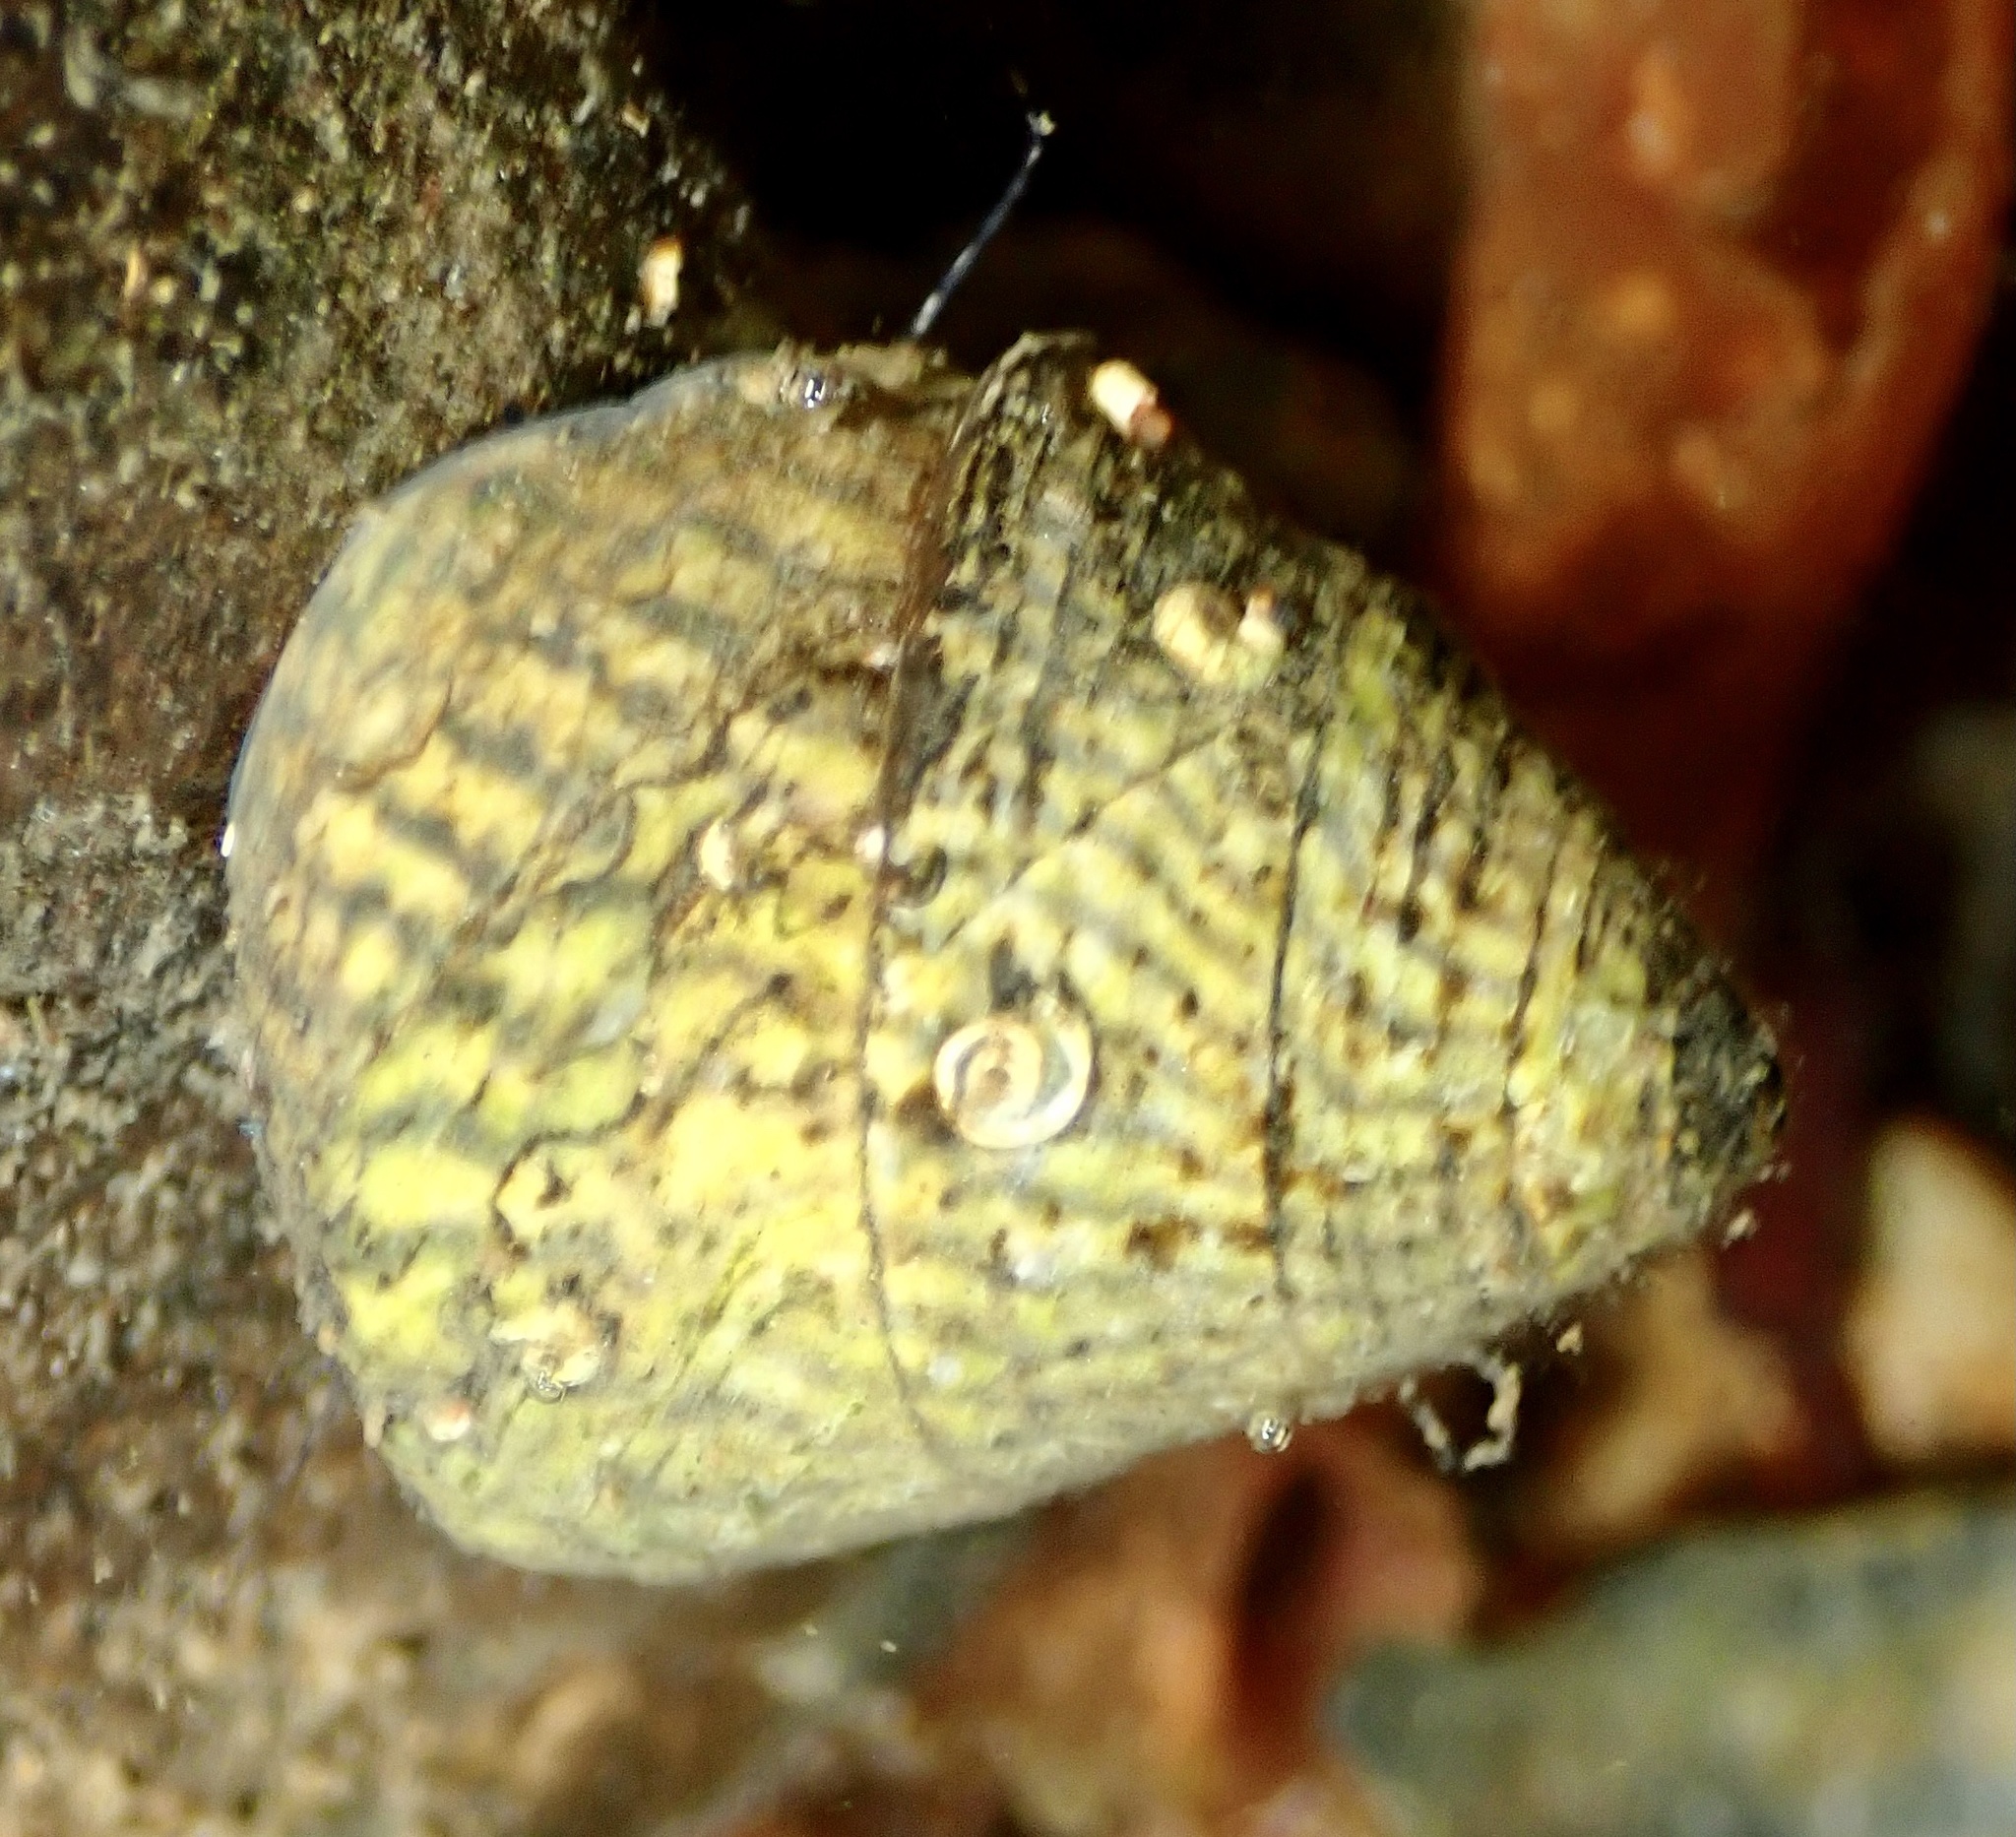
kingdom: Animalia
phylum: Mollusca
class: Gastropoda
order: Trochida
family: Trochidae
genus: Steromphala
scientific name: Steromphala cineraria
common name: Grey top shell
